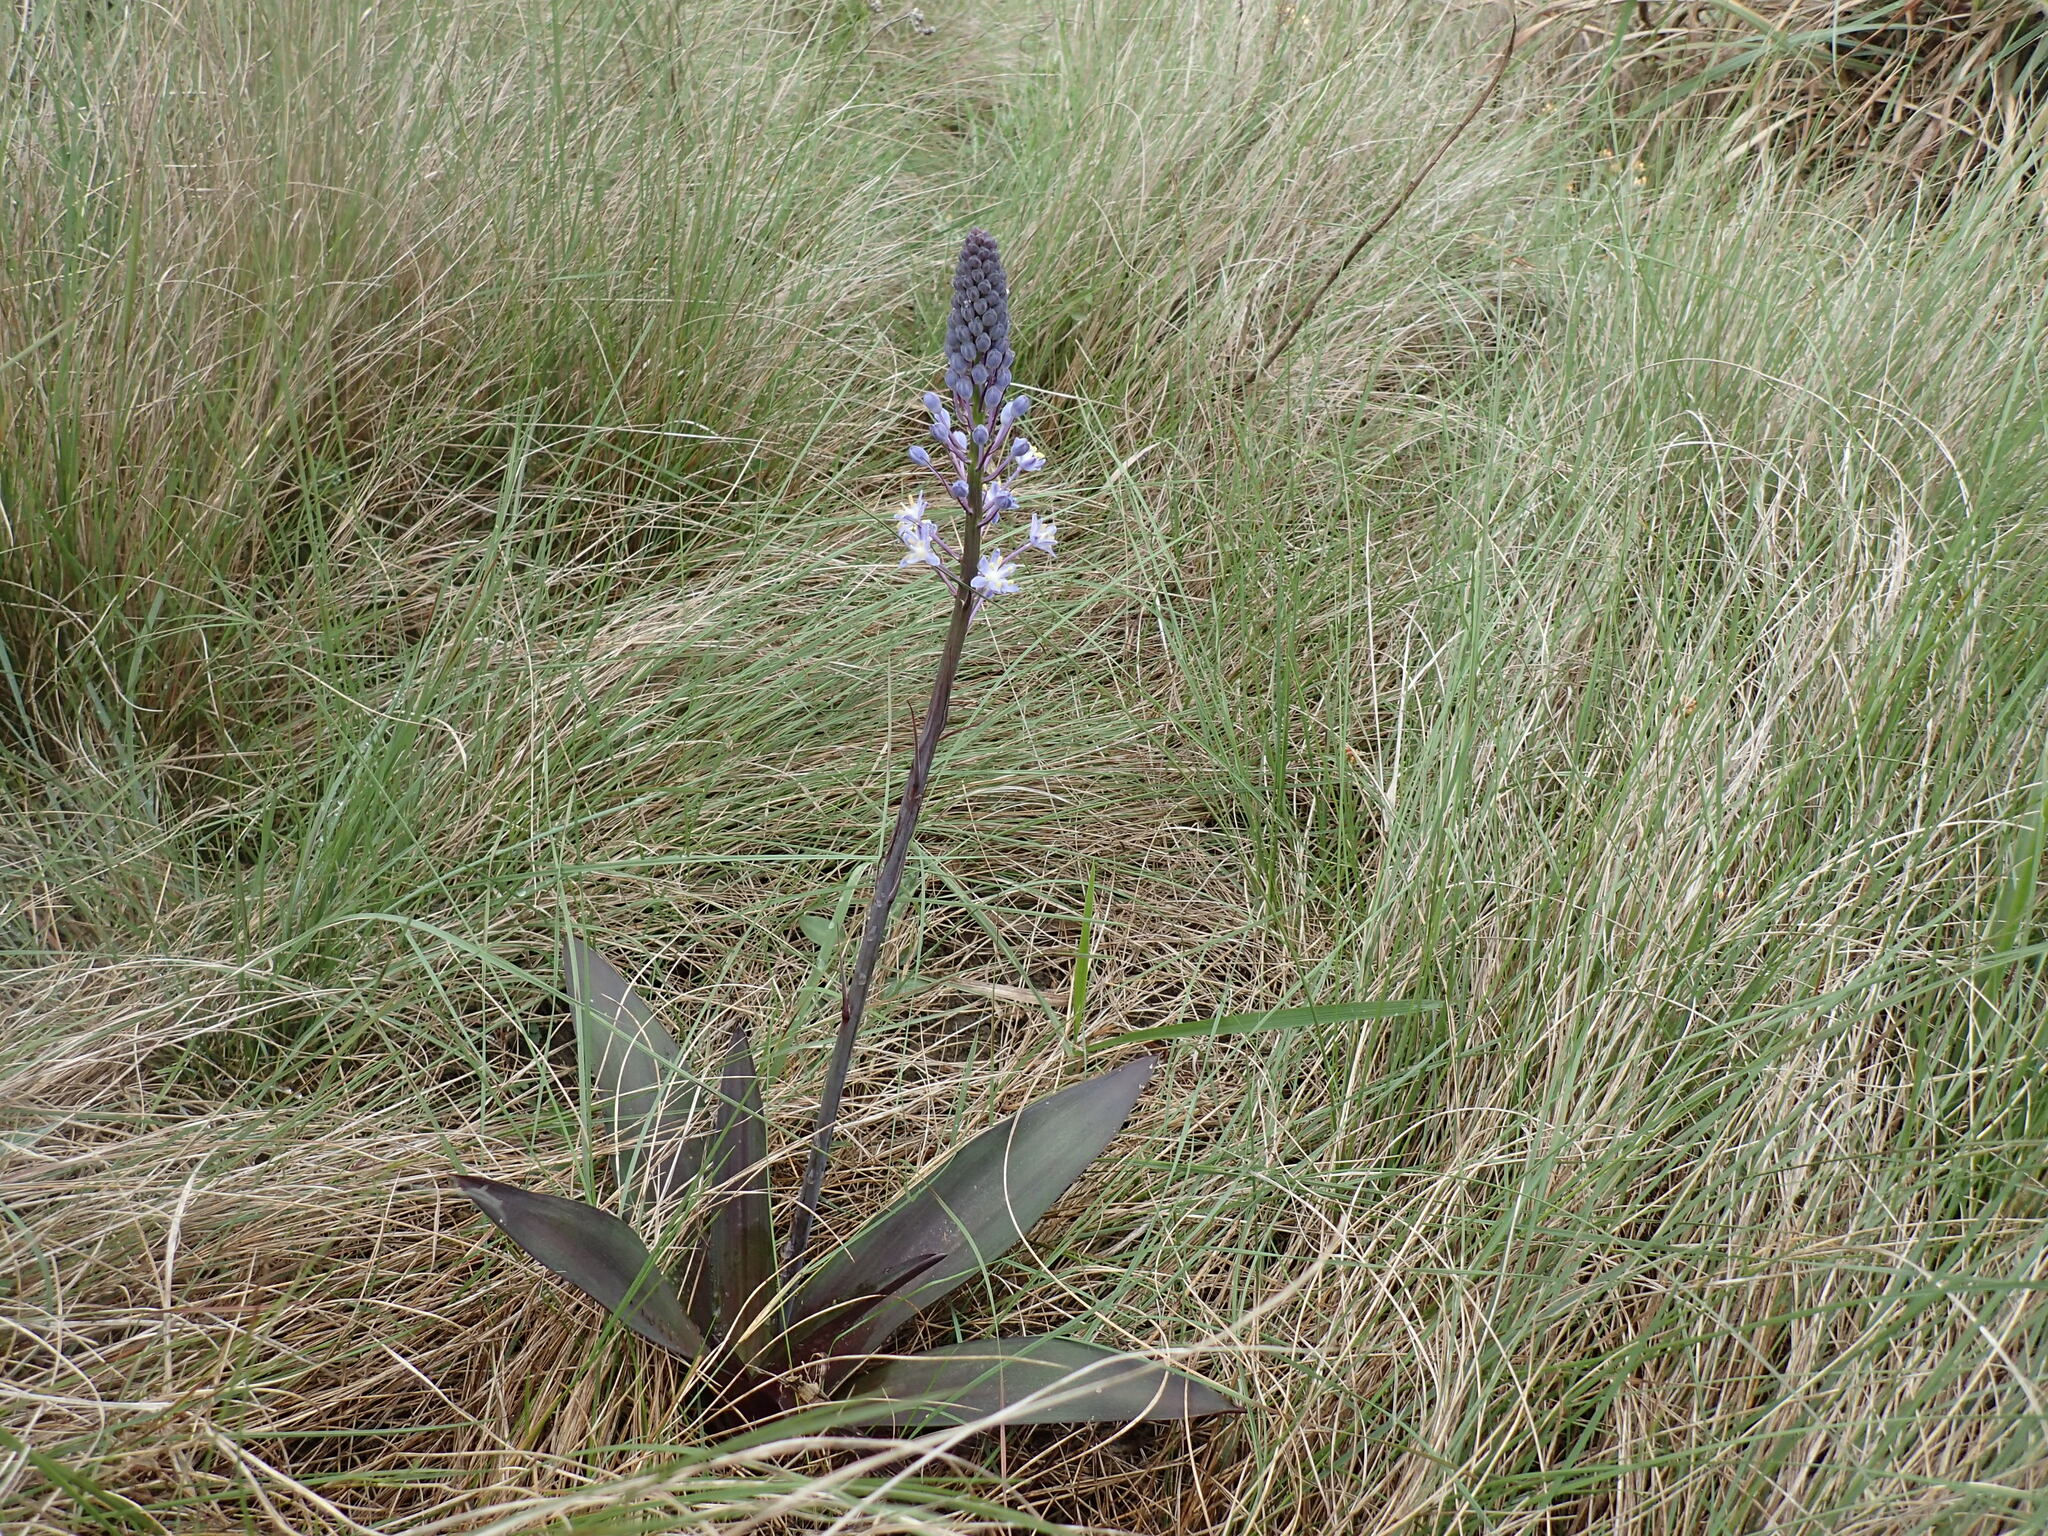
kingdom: Plantae
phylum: Tracheophyta
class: Liliopsida
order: Asparagales
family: Asparagaceae
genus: Merwilla
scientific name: Merwilla plumbea
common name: Blue-squill
